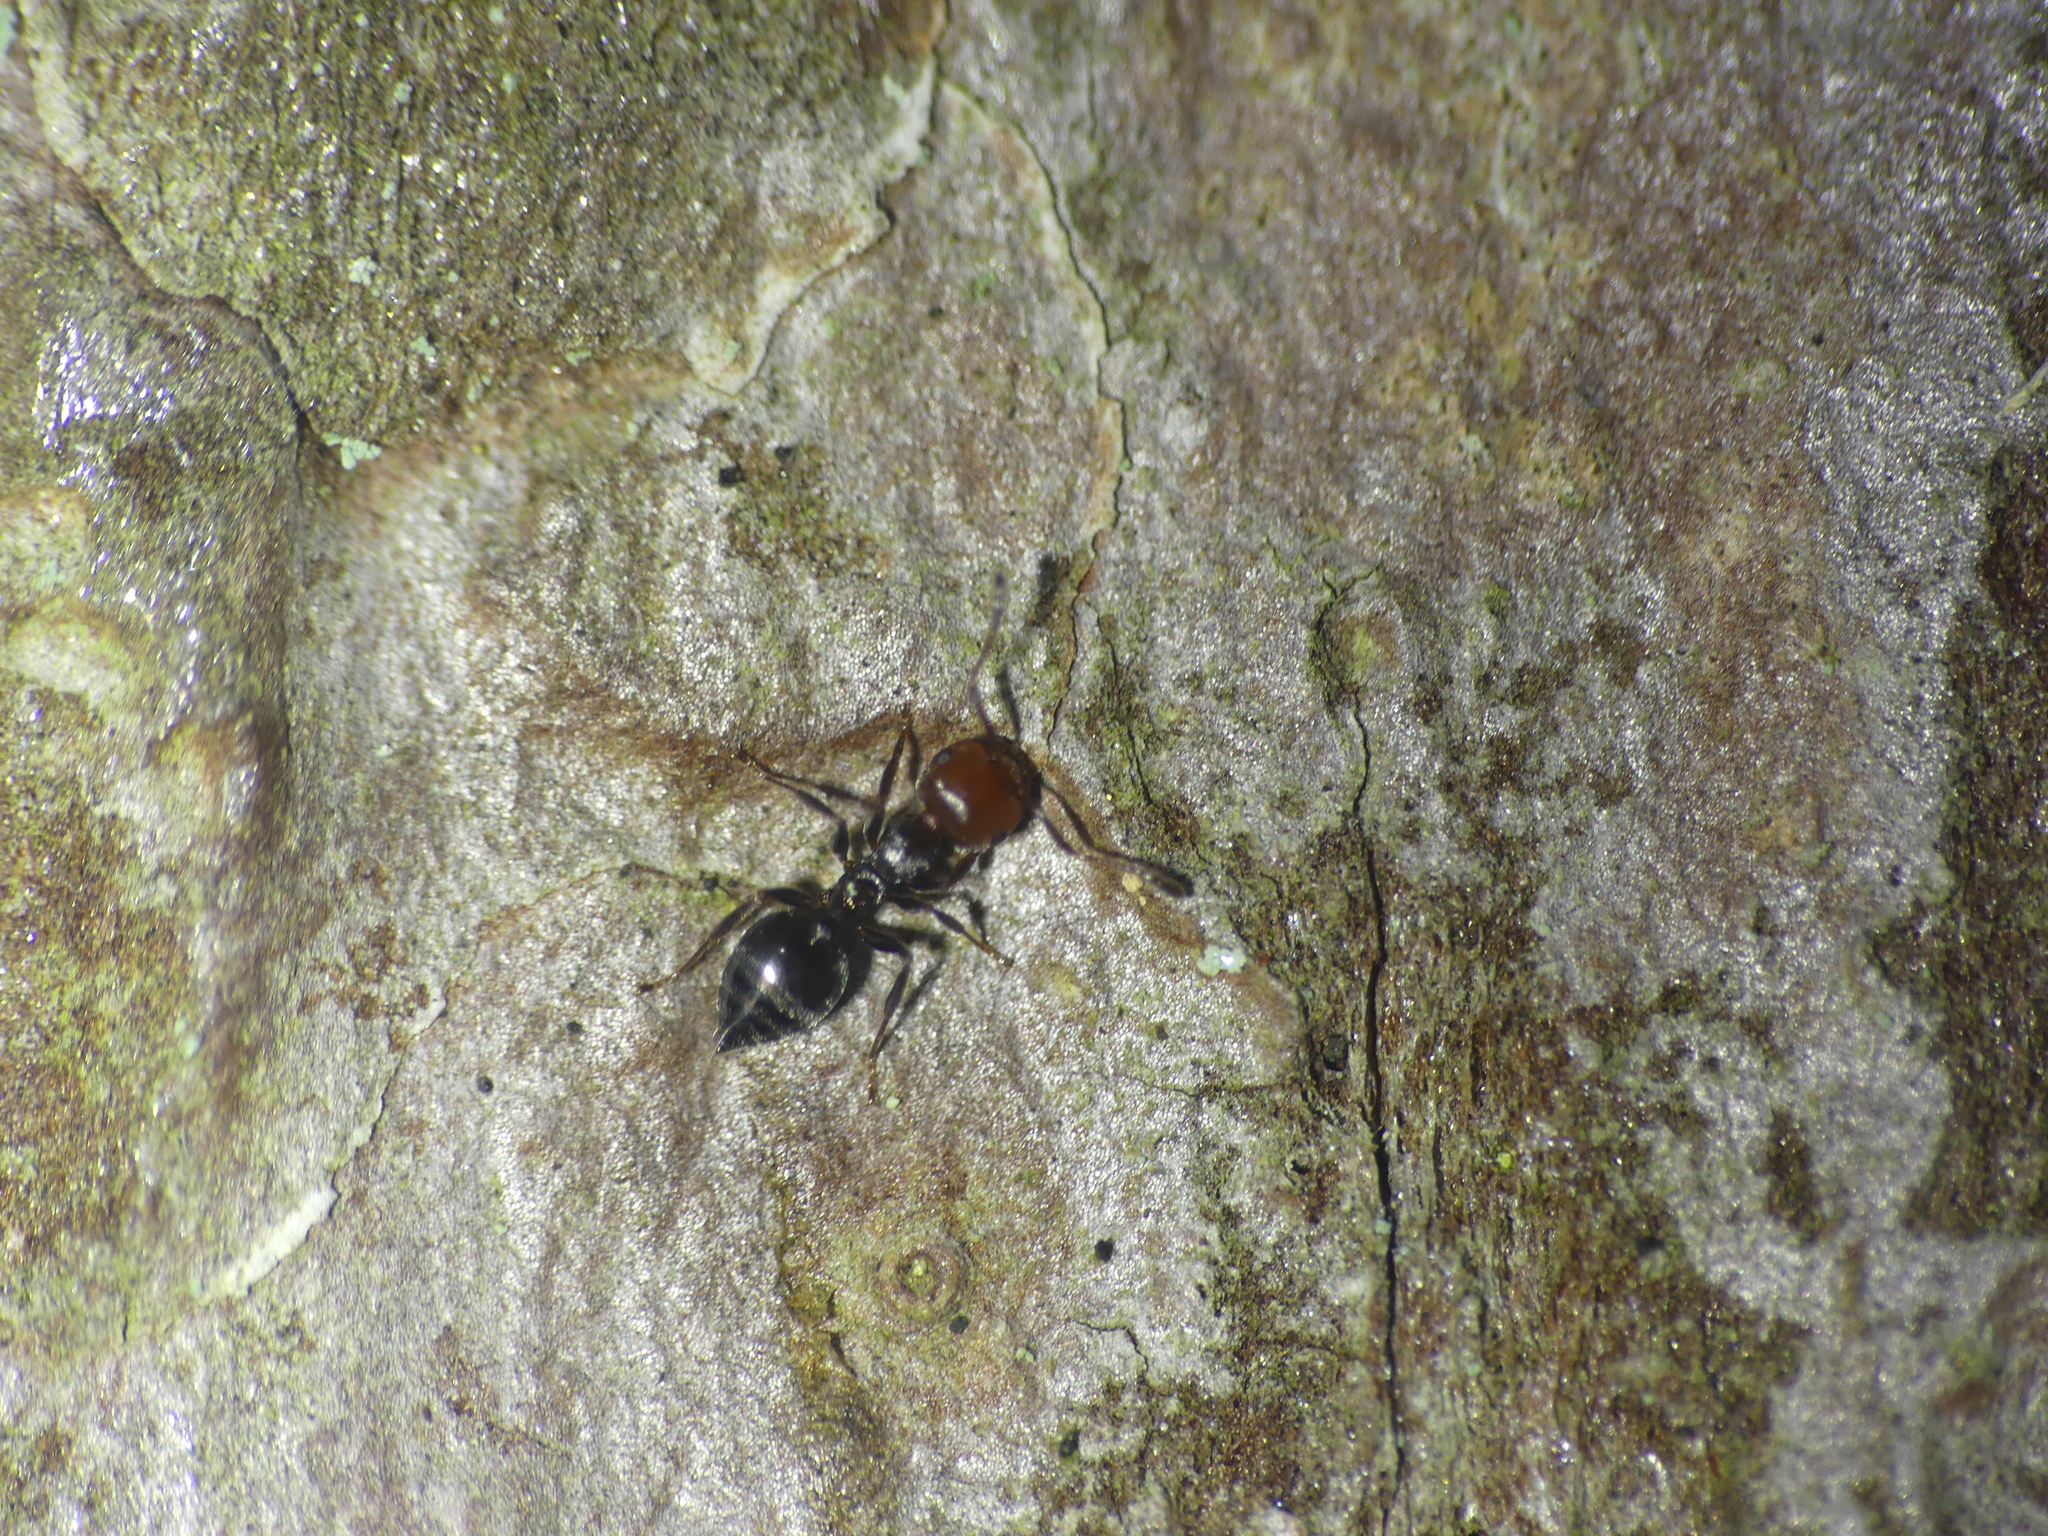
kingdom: Animalia
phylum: Arthropoda
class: Insecta
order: Hymenoptera
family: Formicidae
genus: Crematogaster
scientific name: Crematogaster scutellaris
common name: Fourmi du liège
